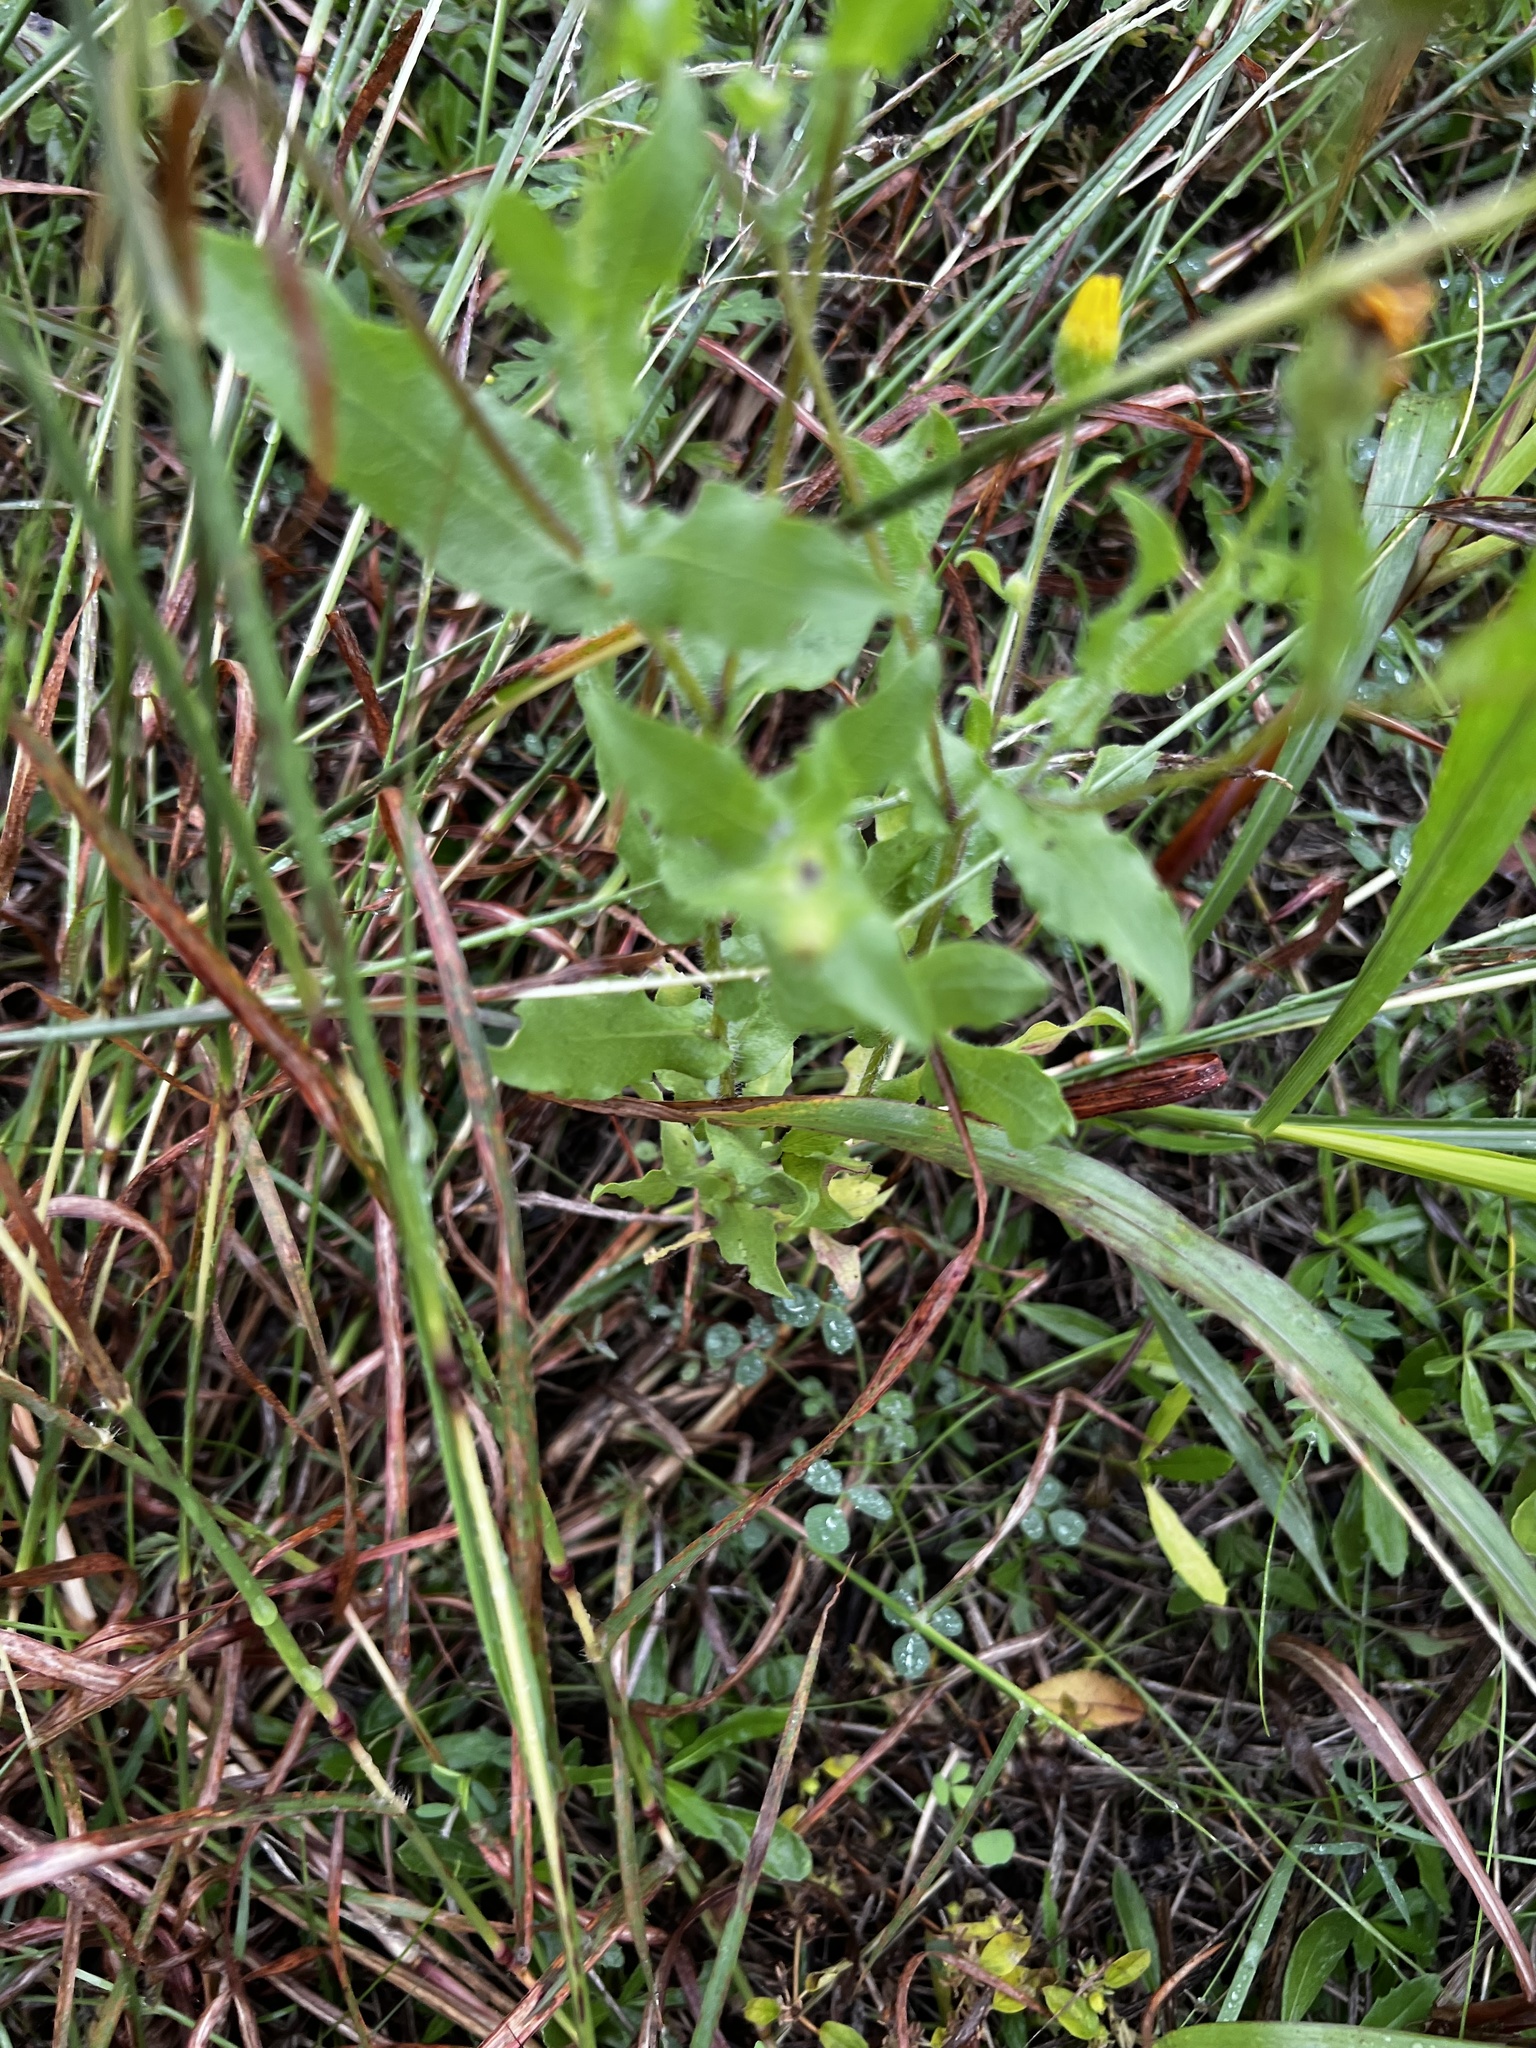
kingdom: Plantae
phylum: Tracheophyta
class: Magnoliopsida
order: Asterales
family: Asteraceae
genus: Heterotheca
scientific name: Heterotheca subaxillaris
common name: Camphorweed
